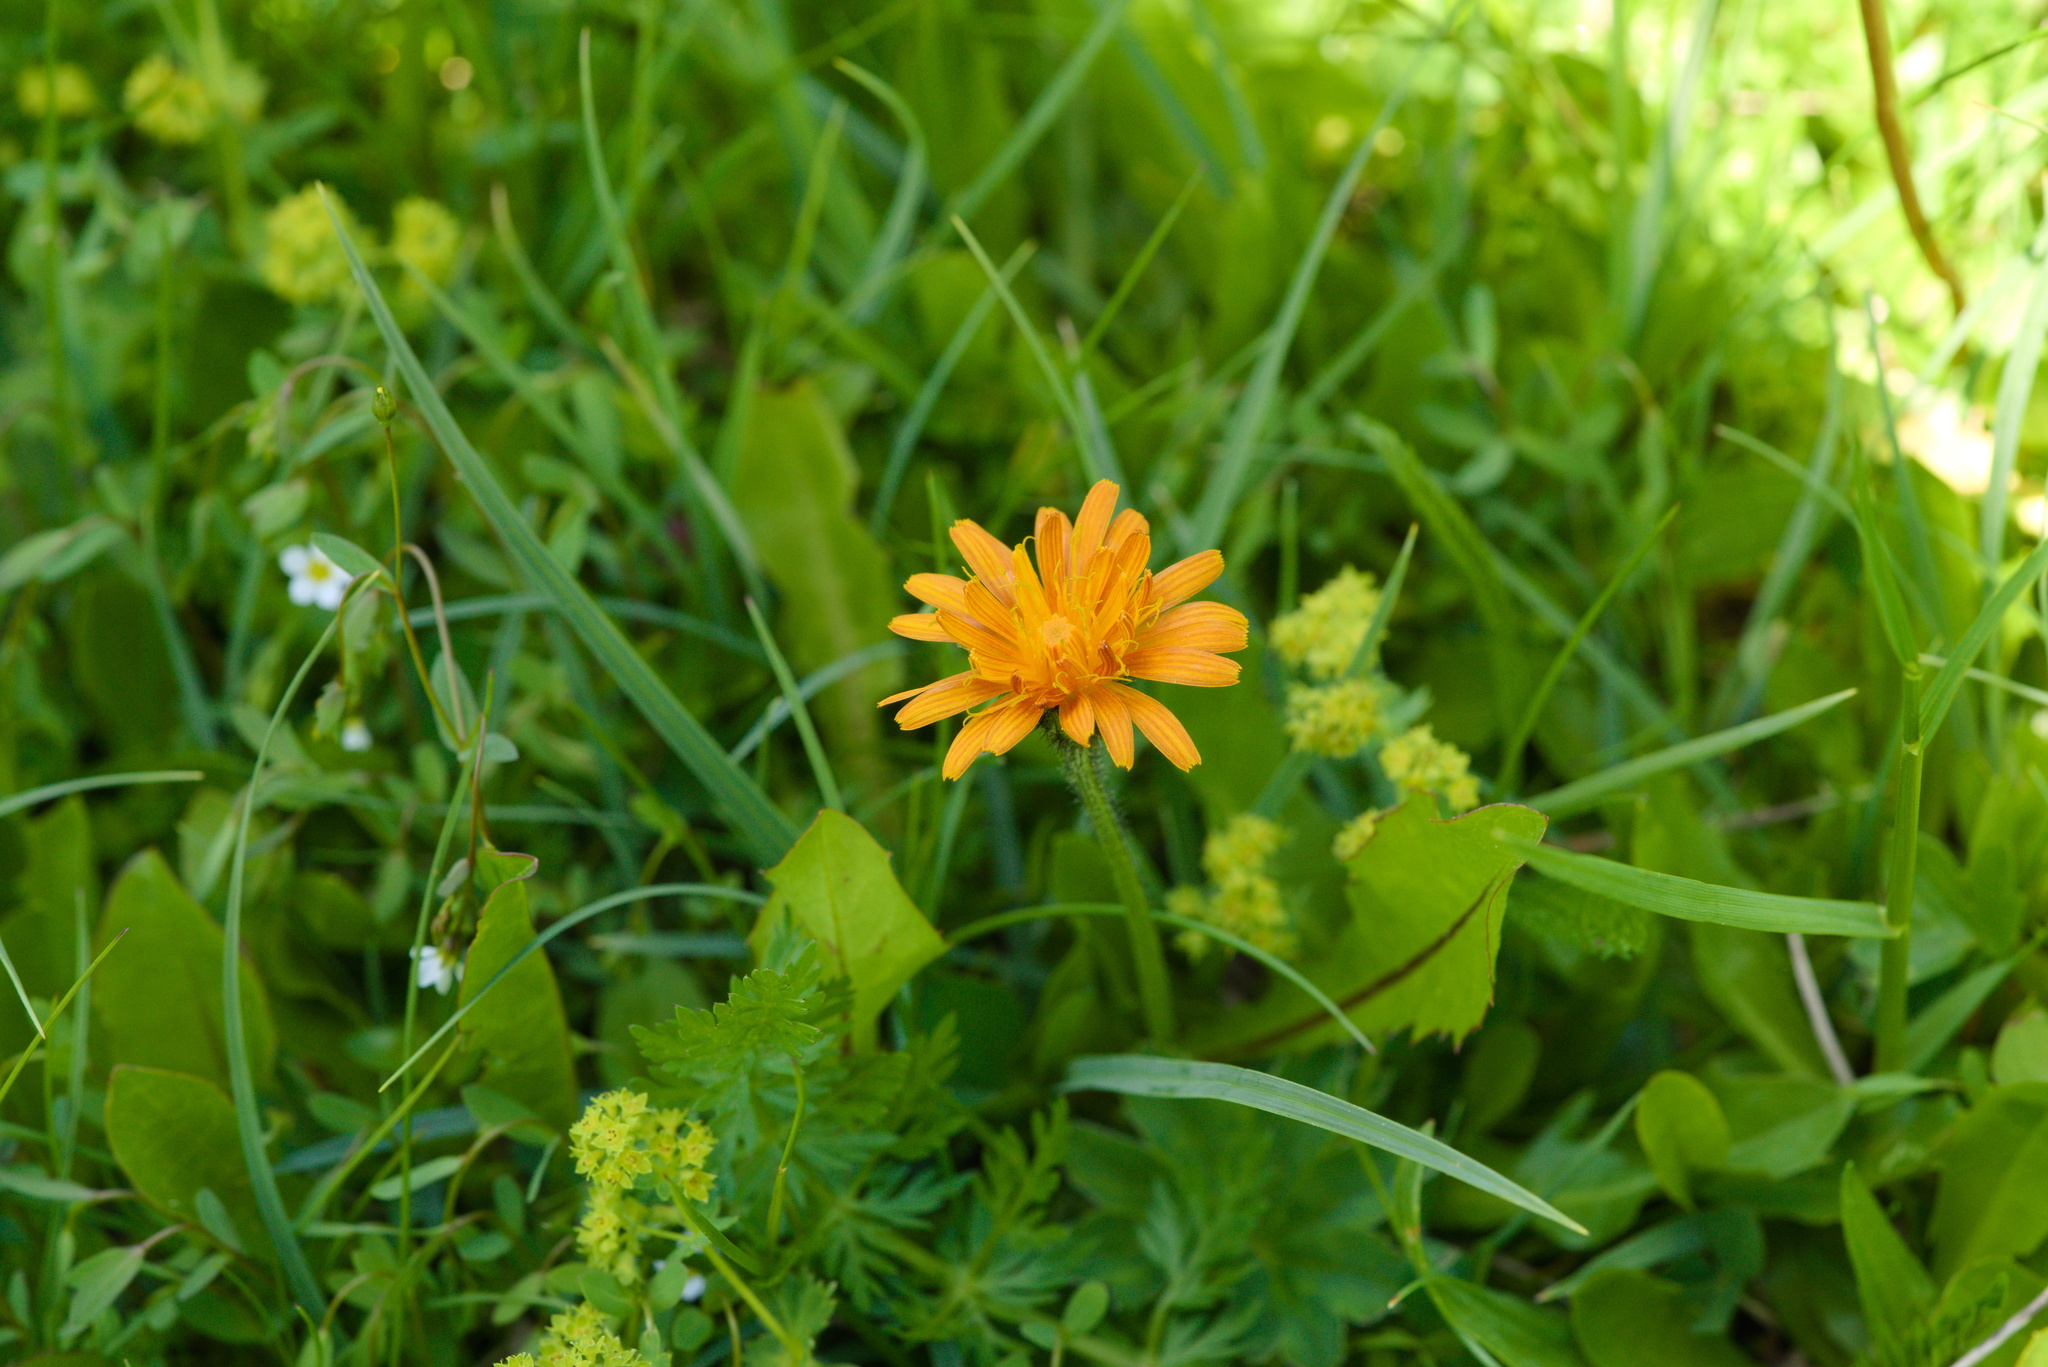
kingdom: Plantae
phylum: Tracheophyta
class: Magnoliopsida
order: Asterales
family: Asteraceae
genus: Crepis
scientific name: Crepis aurea
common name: Golden hawk's-beard
